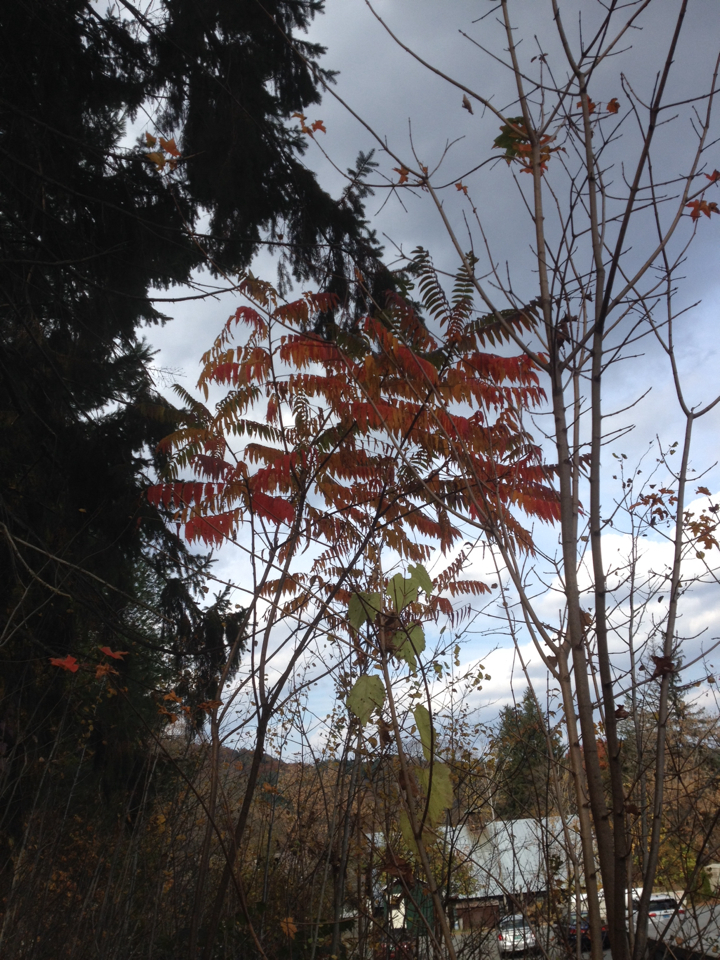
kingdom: Plantae
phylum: Tracheophyta
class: Magnoliopsida
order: Sapindales
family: Anacardiaceae
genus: Rhus
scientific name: Rhus typhina
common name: Staghorn sumac
